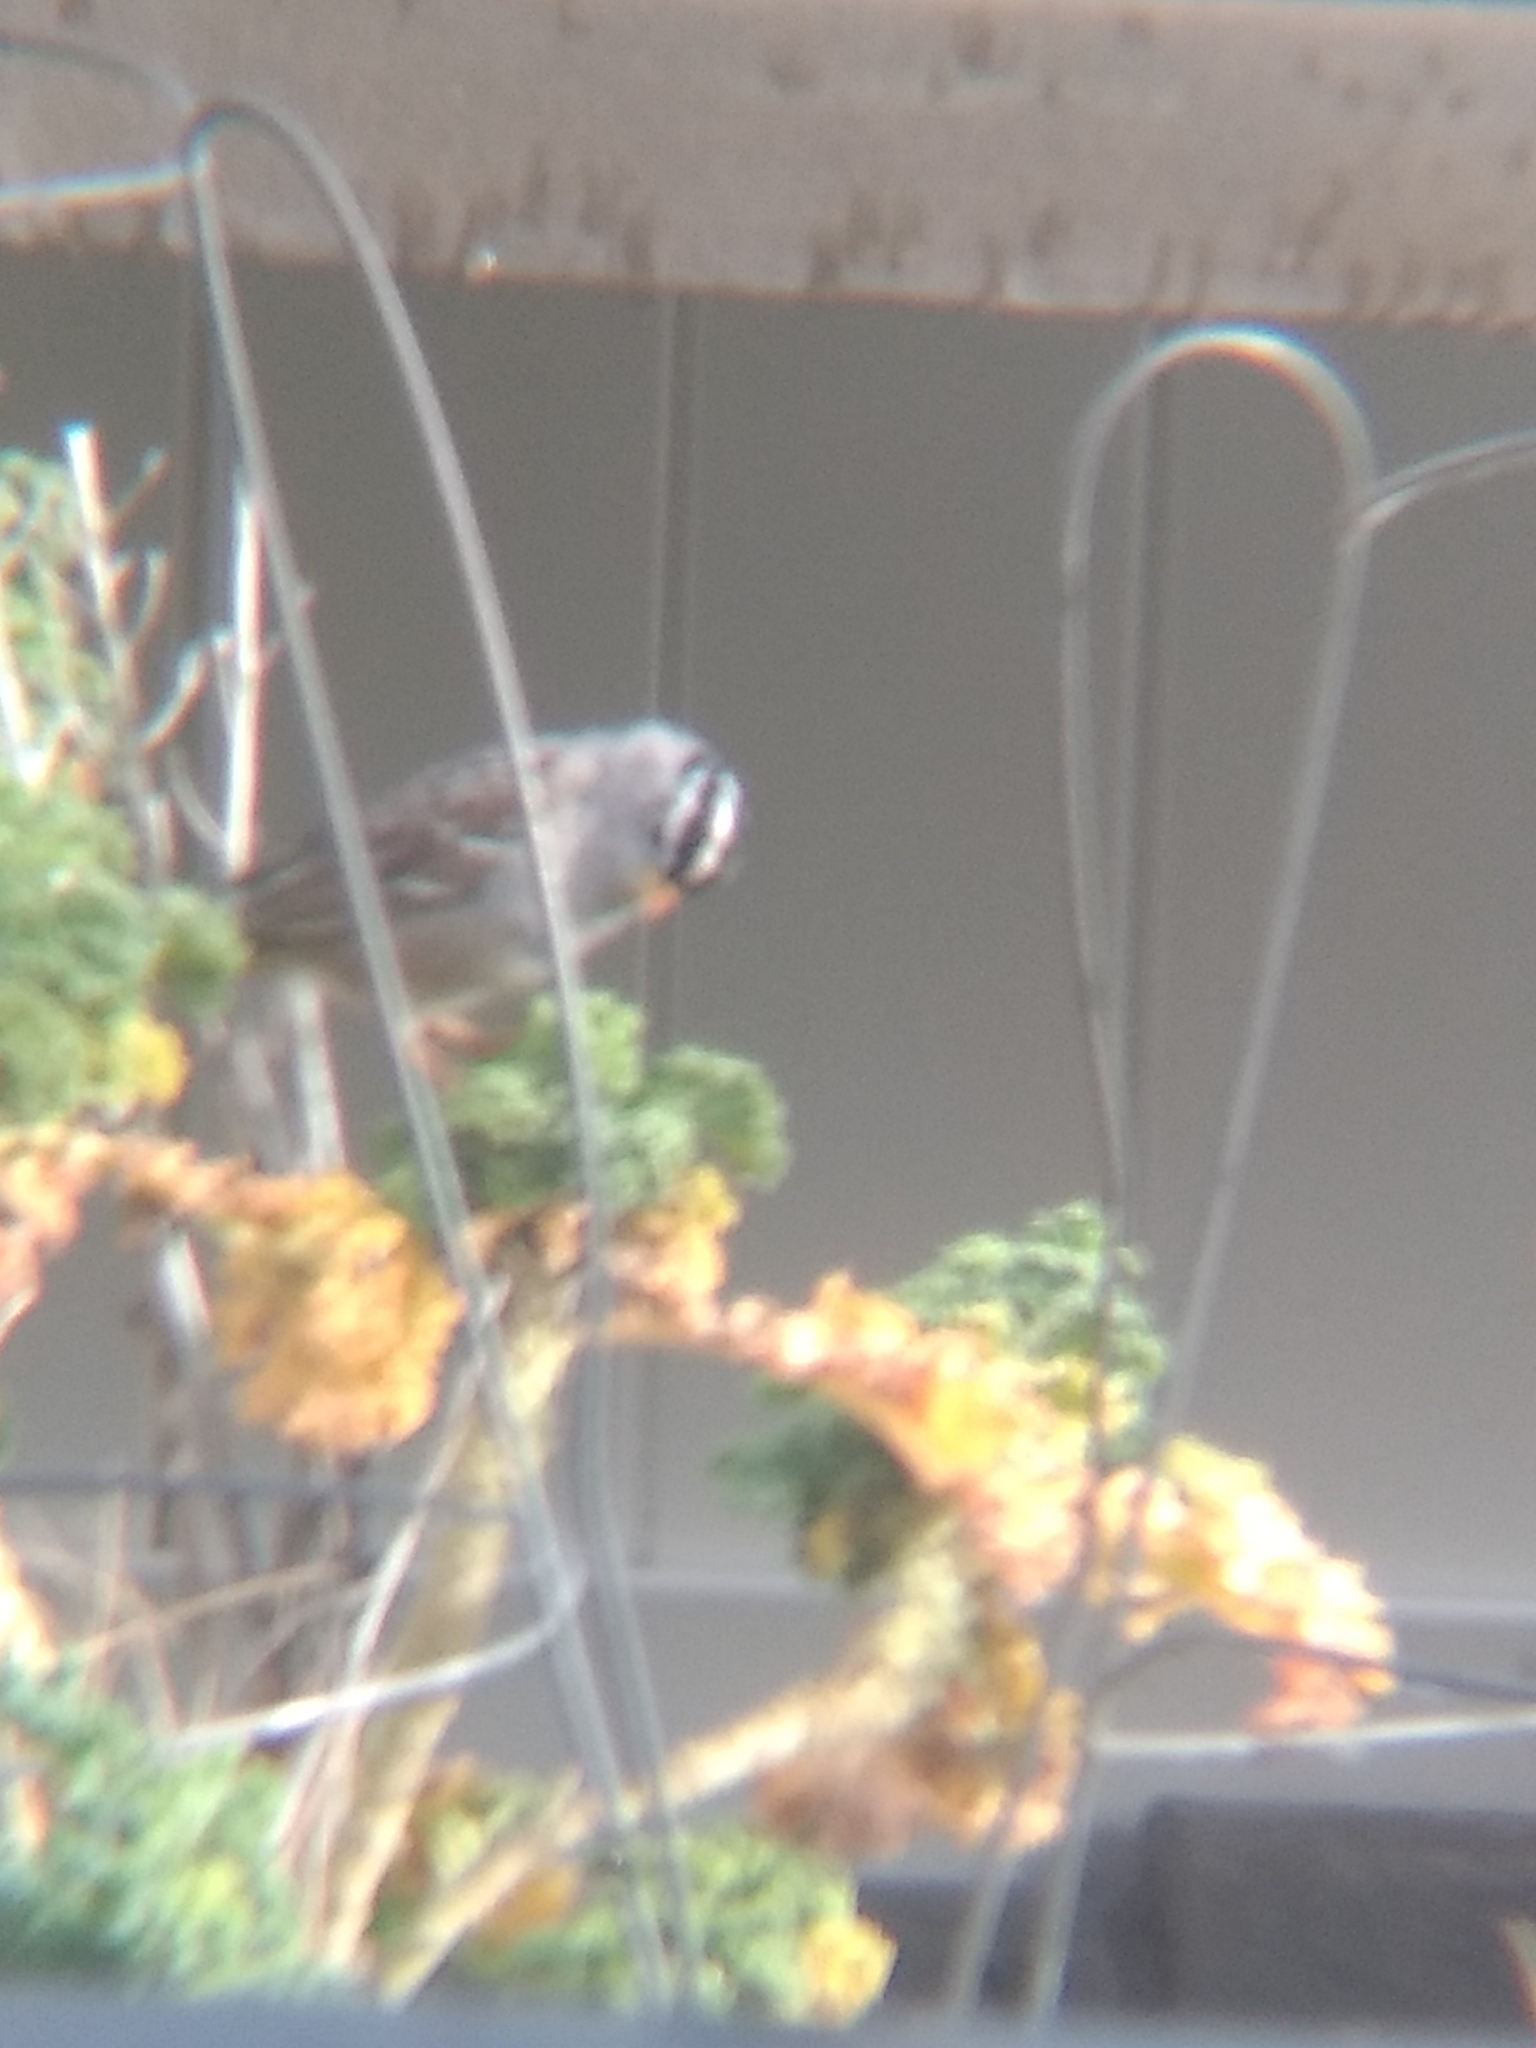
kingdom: Animalia
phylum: Chordata
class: Aves
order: Passeriformes
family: Passerellidae
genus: Zonotrichia
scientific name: Zonotrichia leucophrys
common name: White-crowned sparrow
